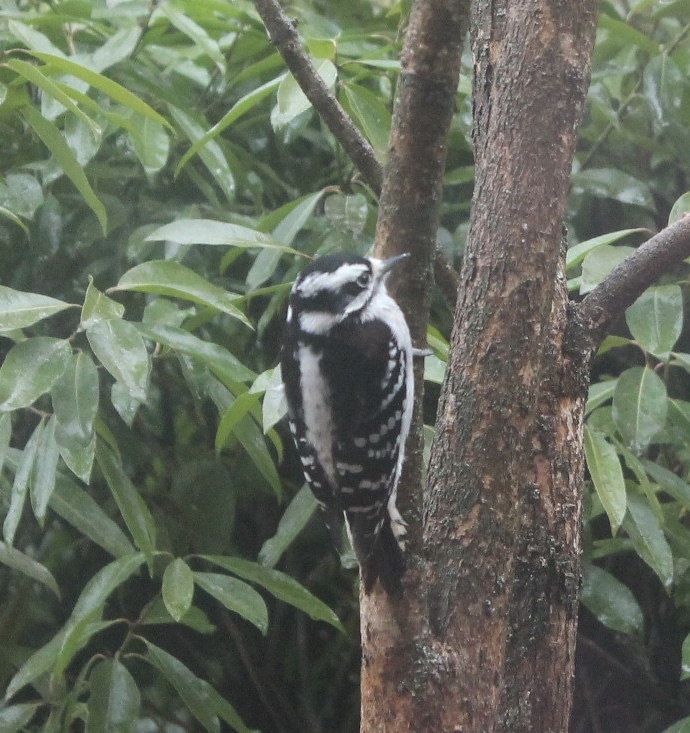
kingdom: Animalia
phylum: Chordata
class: Aves
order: Piciformes
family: Picidae
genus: Dryobates
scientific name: Dryobates pubescens
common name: Downy woodpecker
